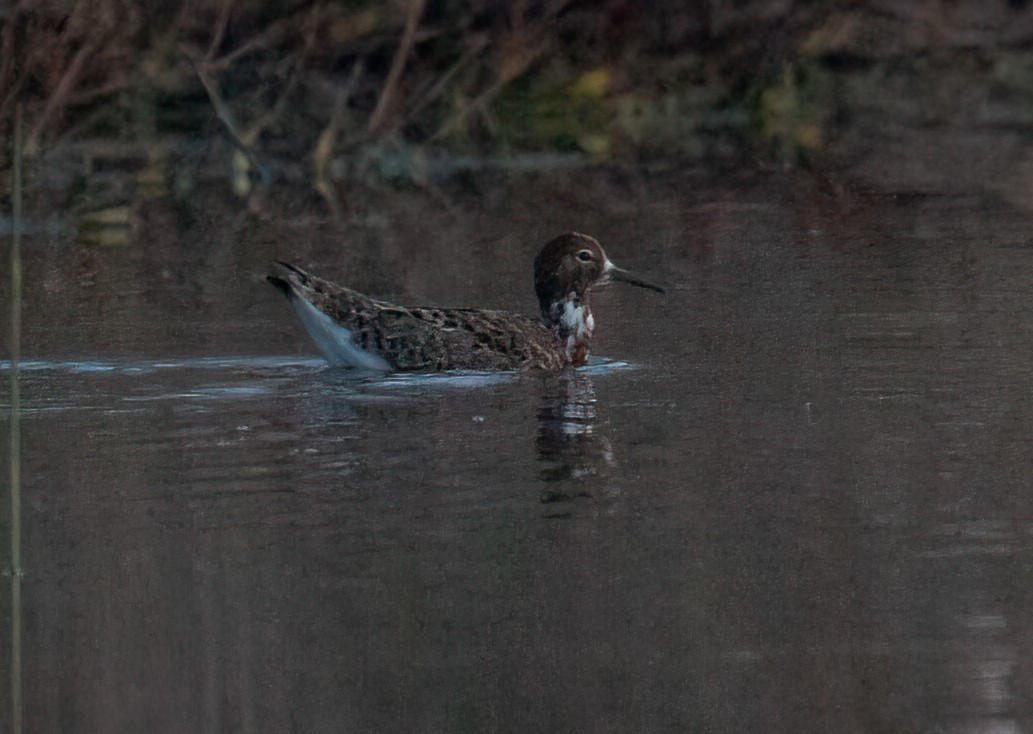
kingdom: Animalia
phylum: Chordata
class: Aves
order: Charadriiformes
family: Scolopacidae
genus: Calidris
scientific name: Calidris pugnax
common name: Ruff
